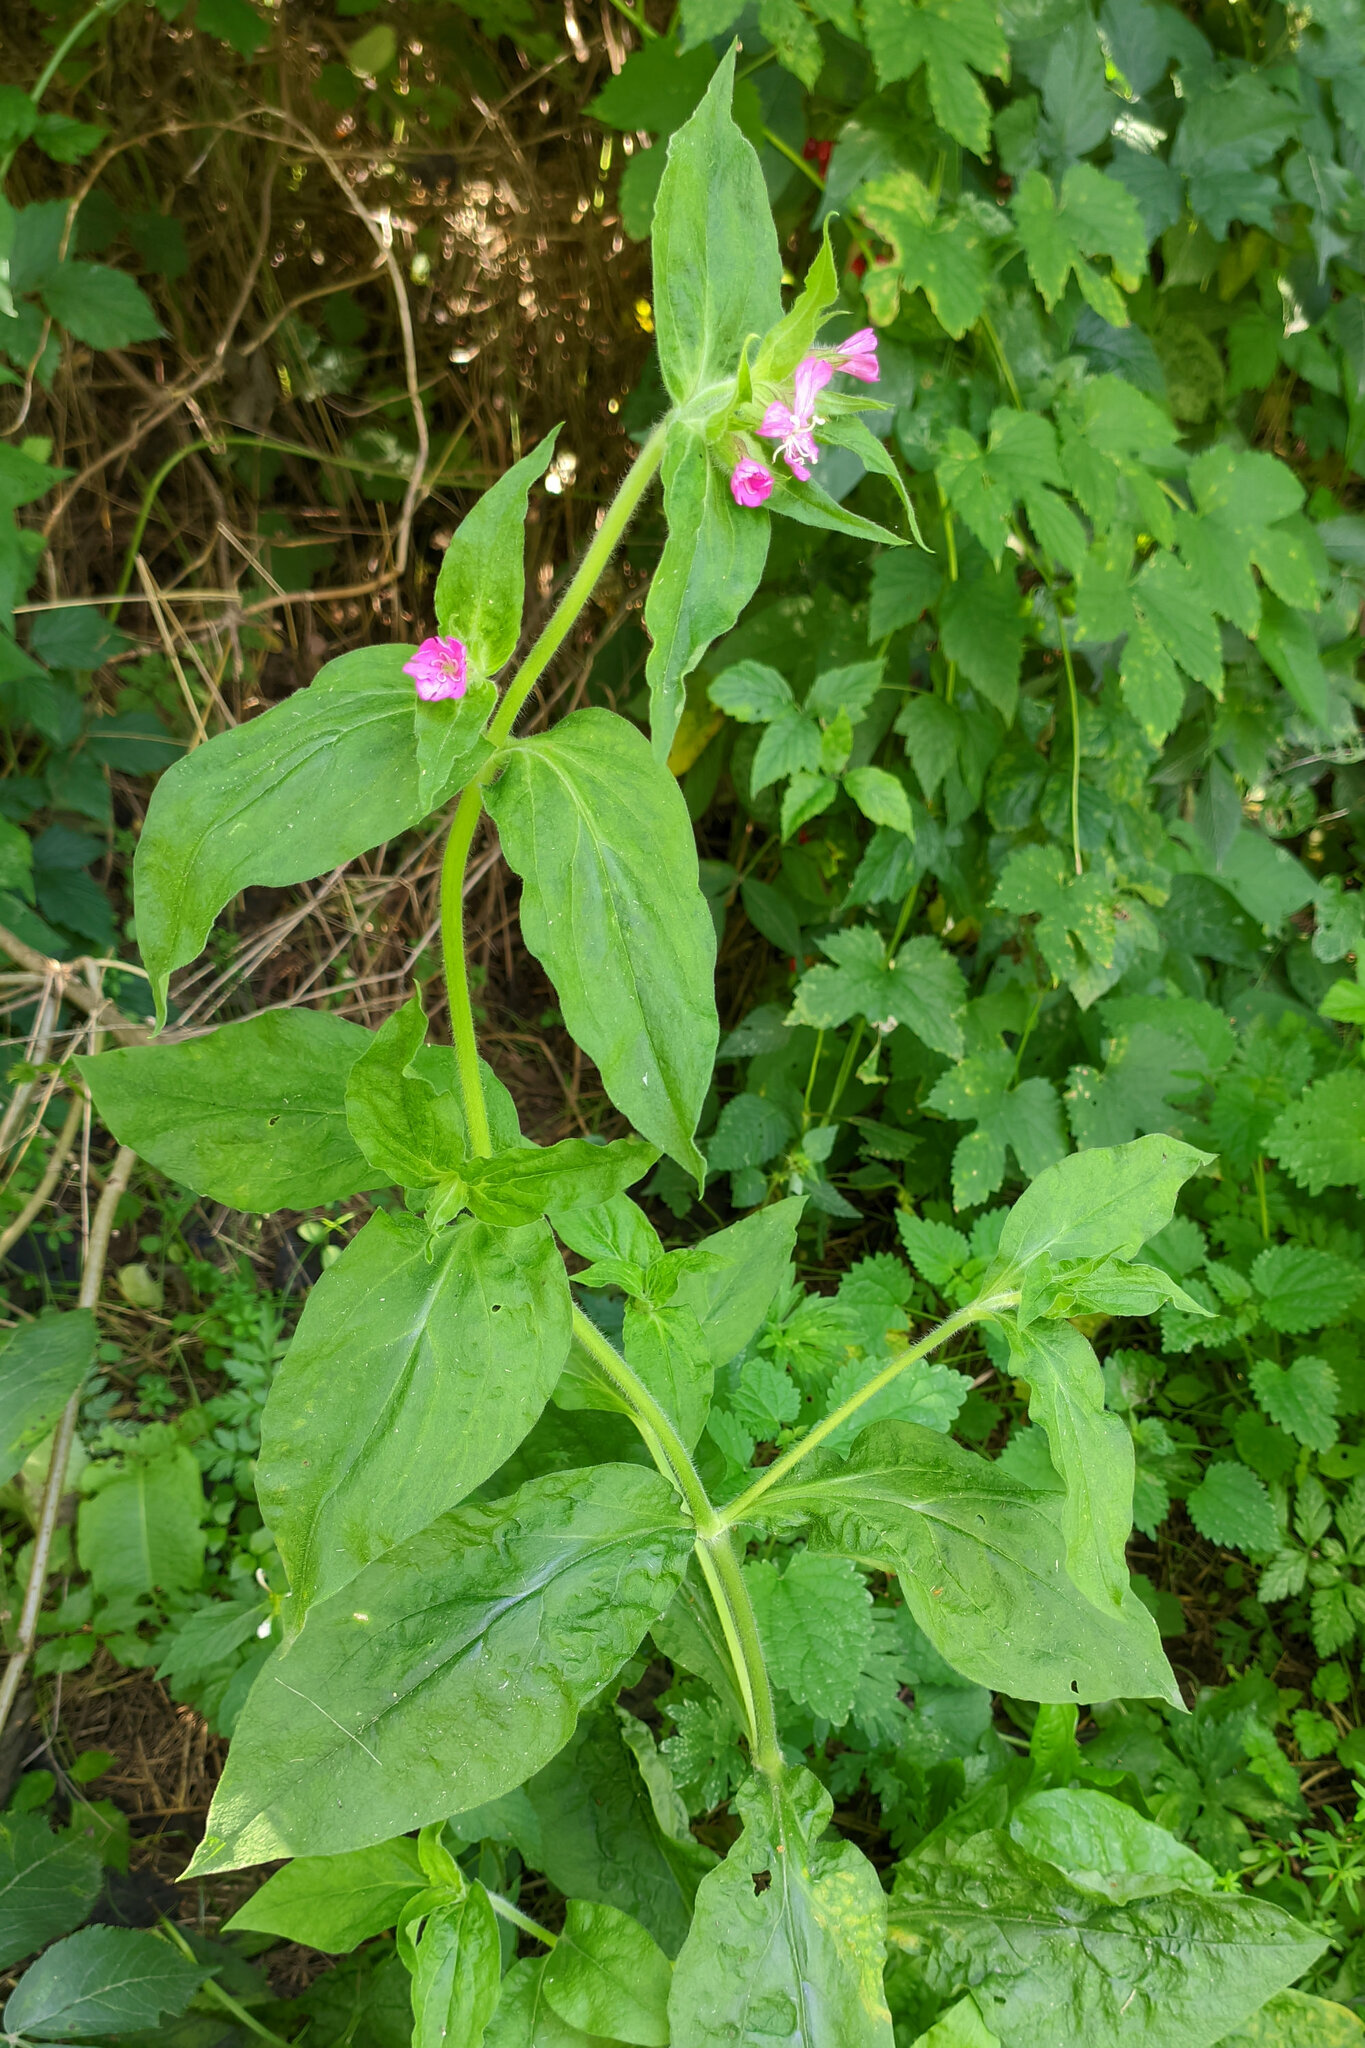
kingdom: Plantae
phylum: Tracheophyta
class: Magnoliopsida
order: Caryophyllales
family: Caryophyllaceae
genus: Silene
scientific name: Silene dioica
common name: Red campion
